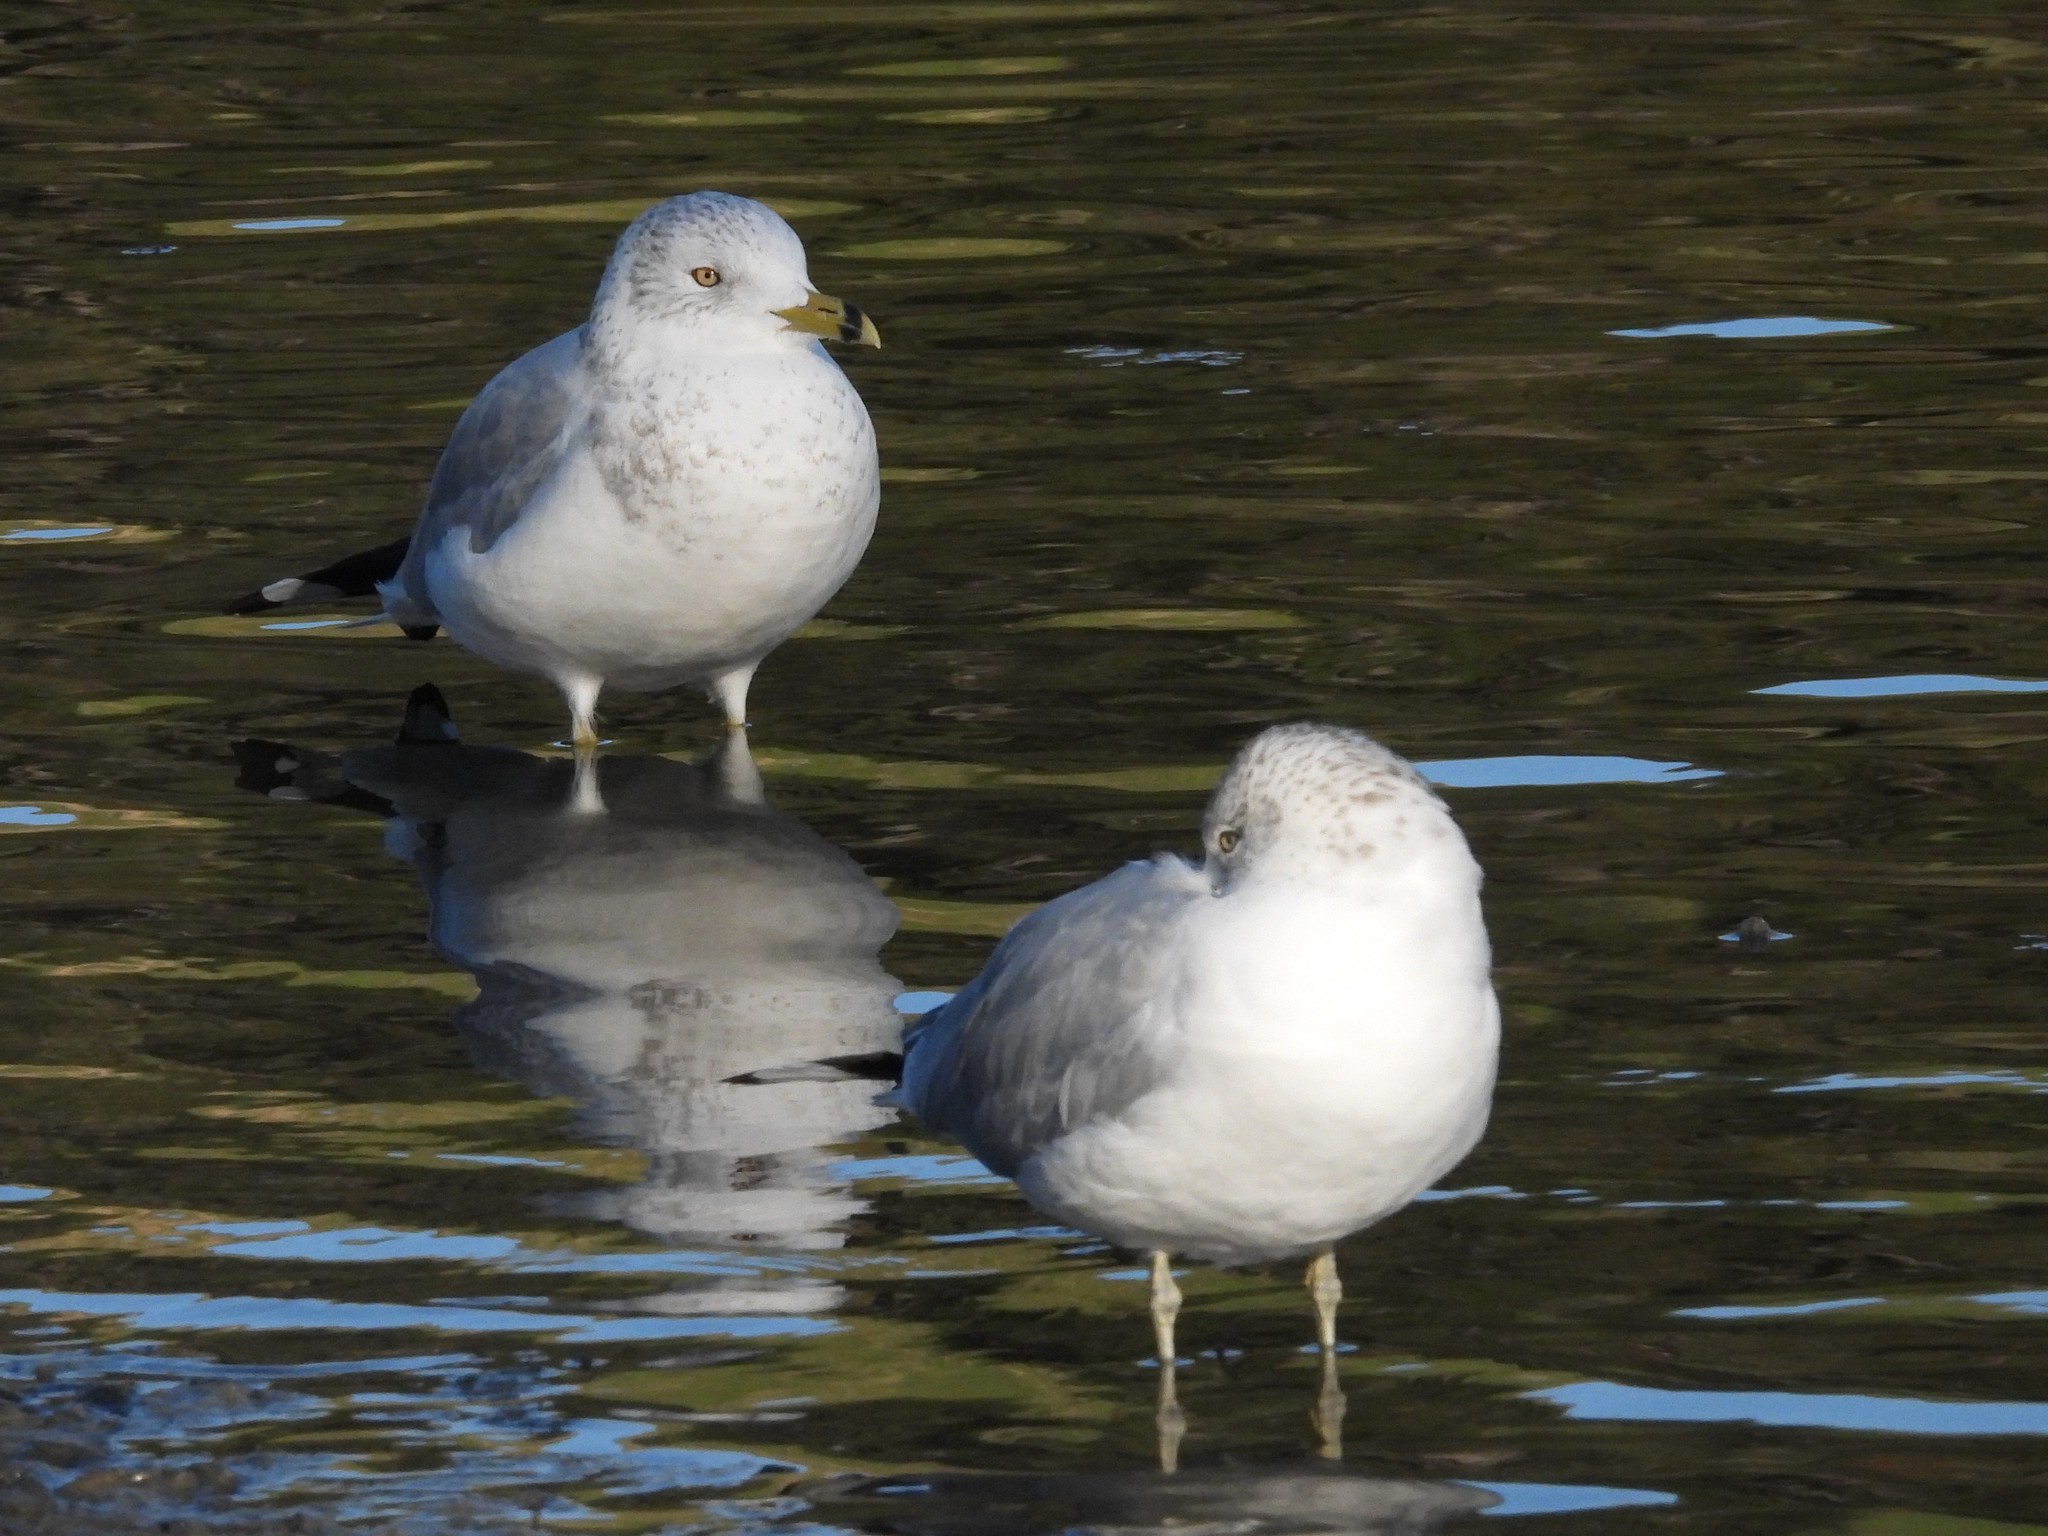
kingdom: Animalia
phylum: Chordata
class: Aves
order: Charadriiformes
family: Laridae
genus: Larus
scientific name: Larus delawarensis
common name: Ring-billed gull
